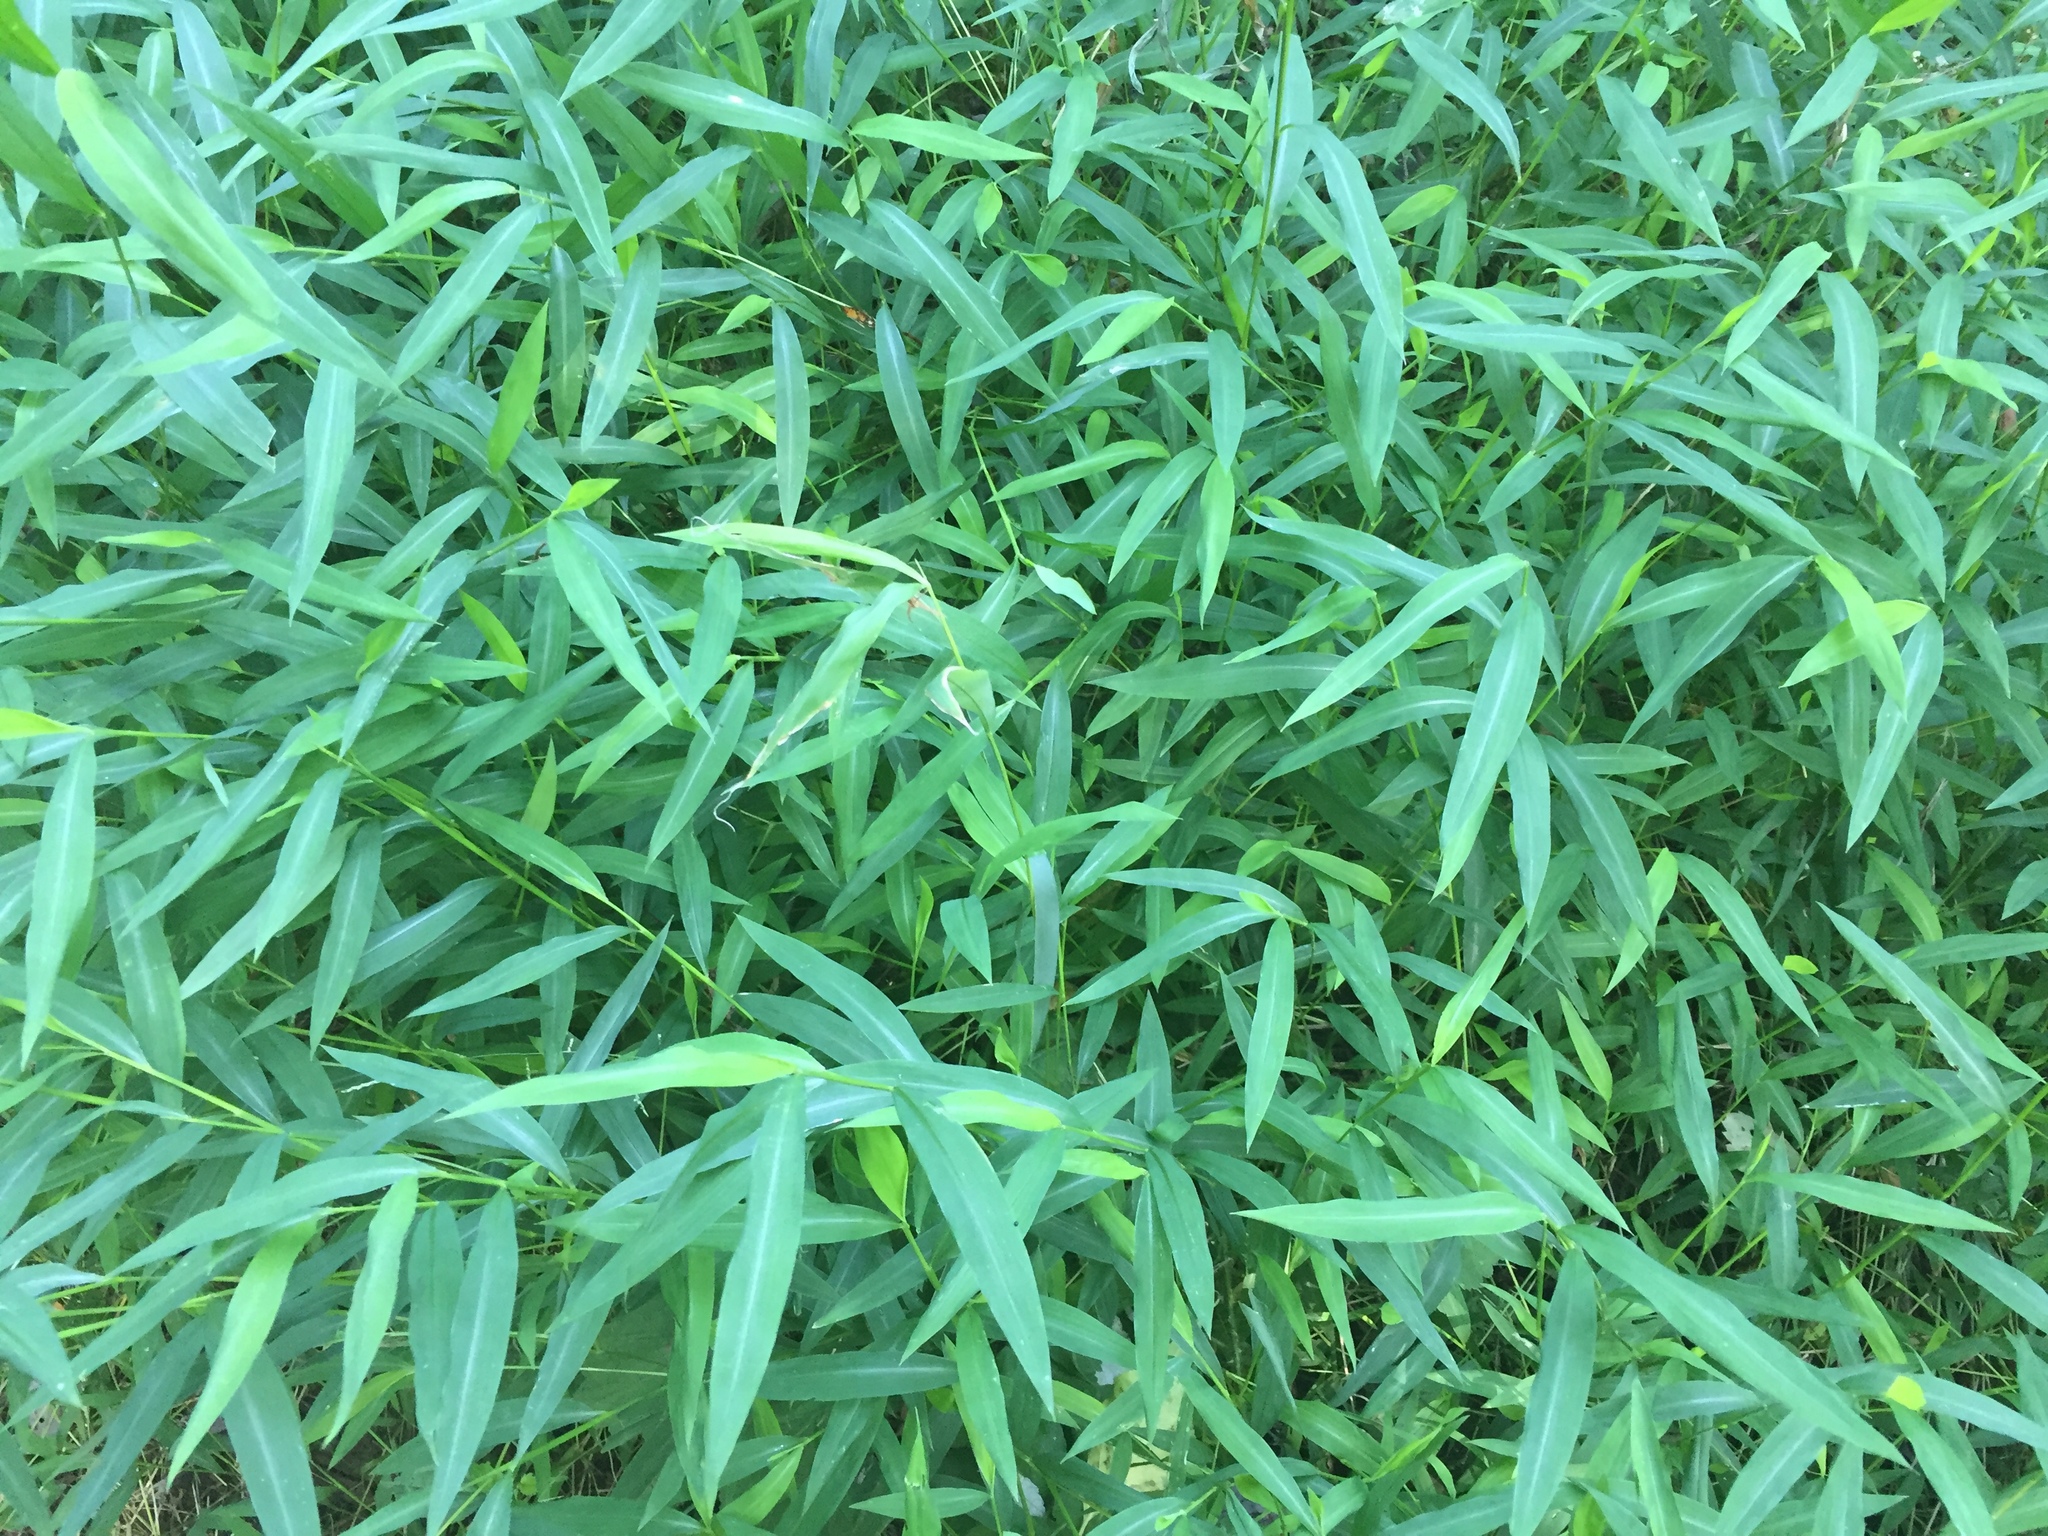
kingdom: Plantae
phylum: Tracheophyta
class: Liliopsida
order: Poales
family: Poaceae
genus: Microstegium
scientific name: Microstegium vimineum
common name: Japanese stiltgrass
